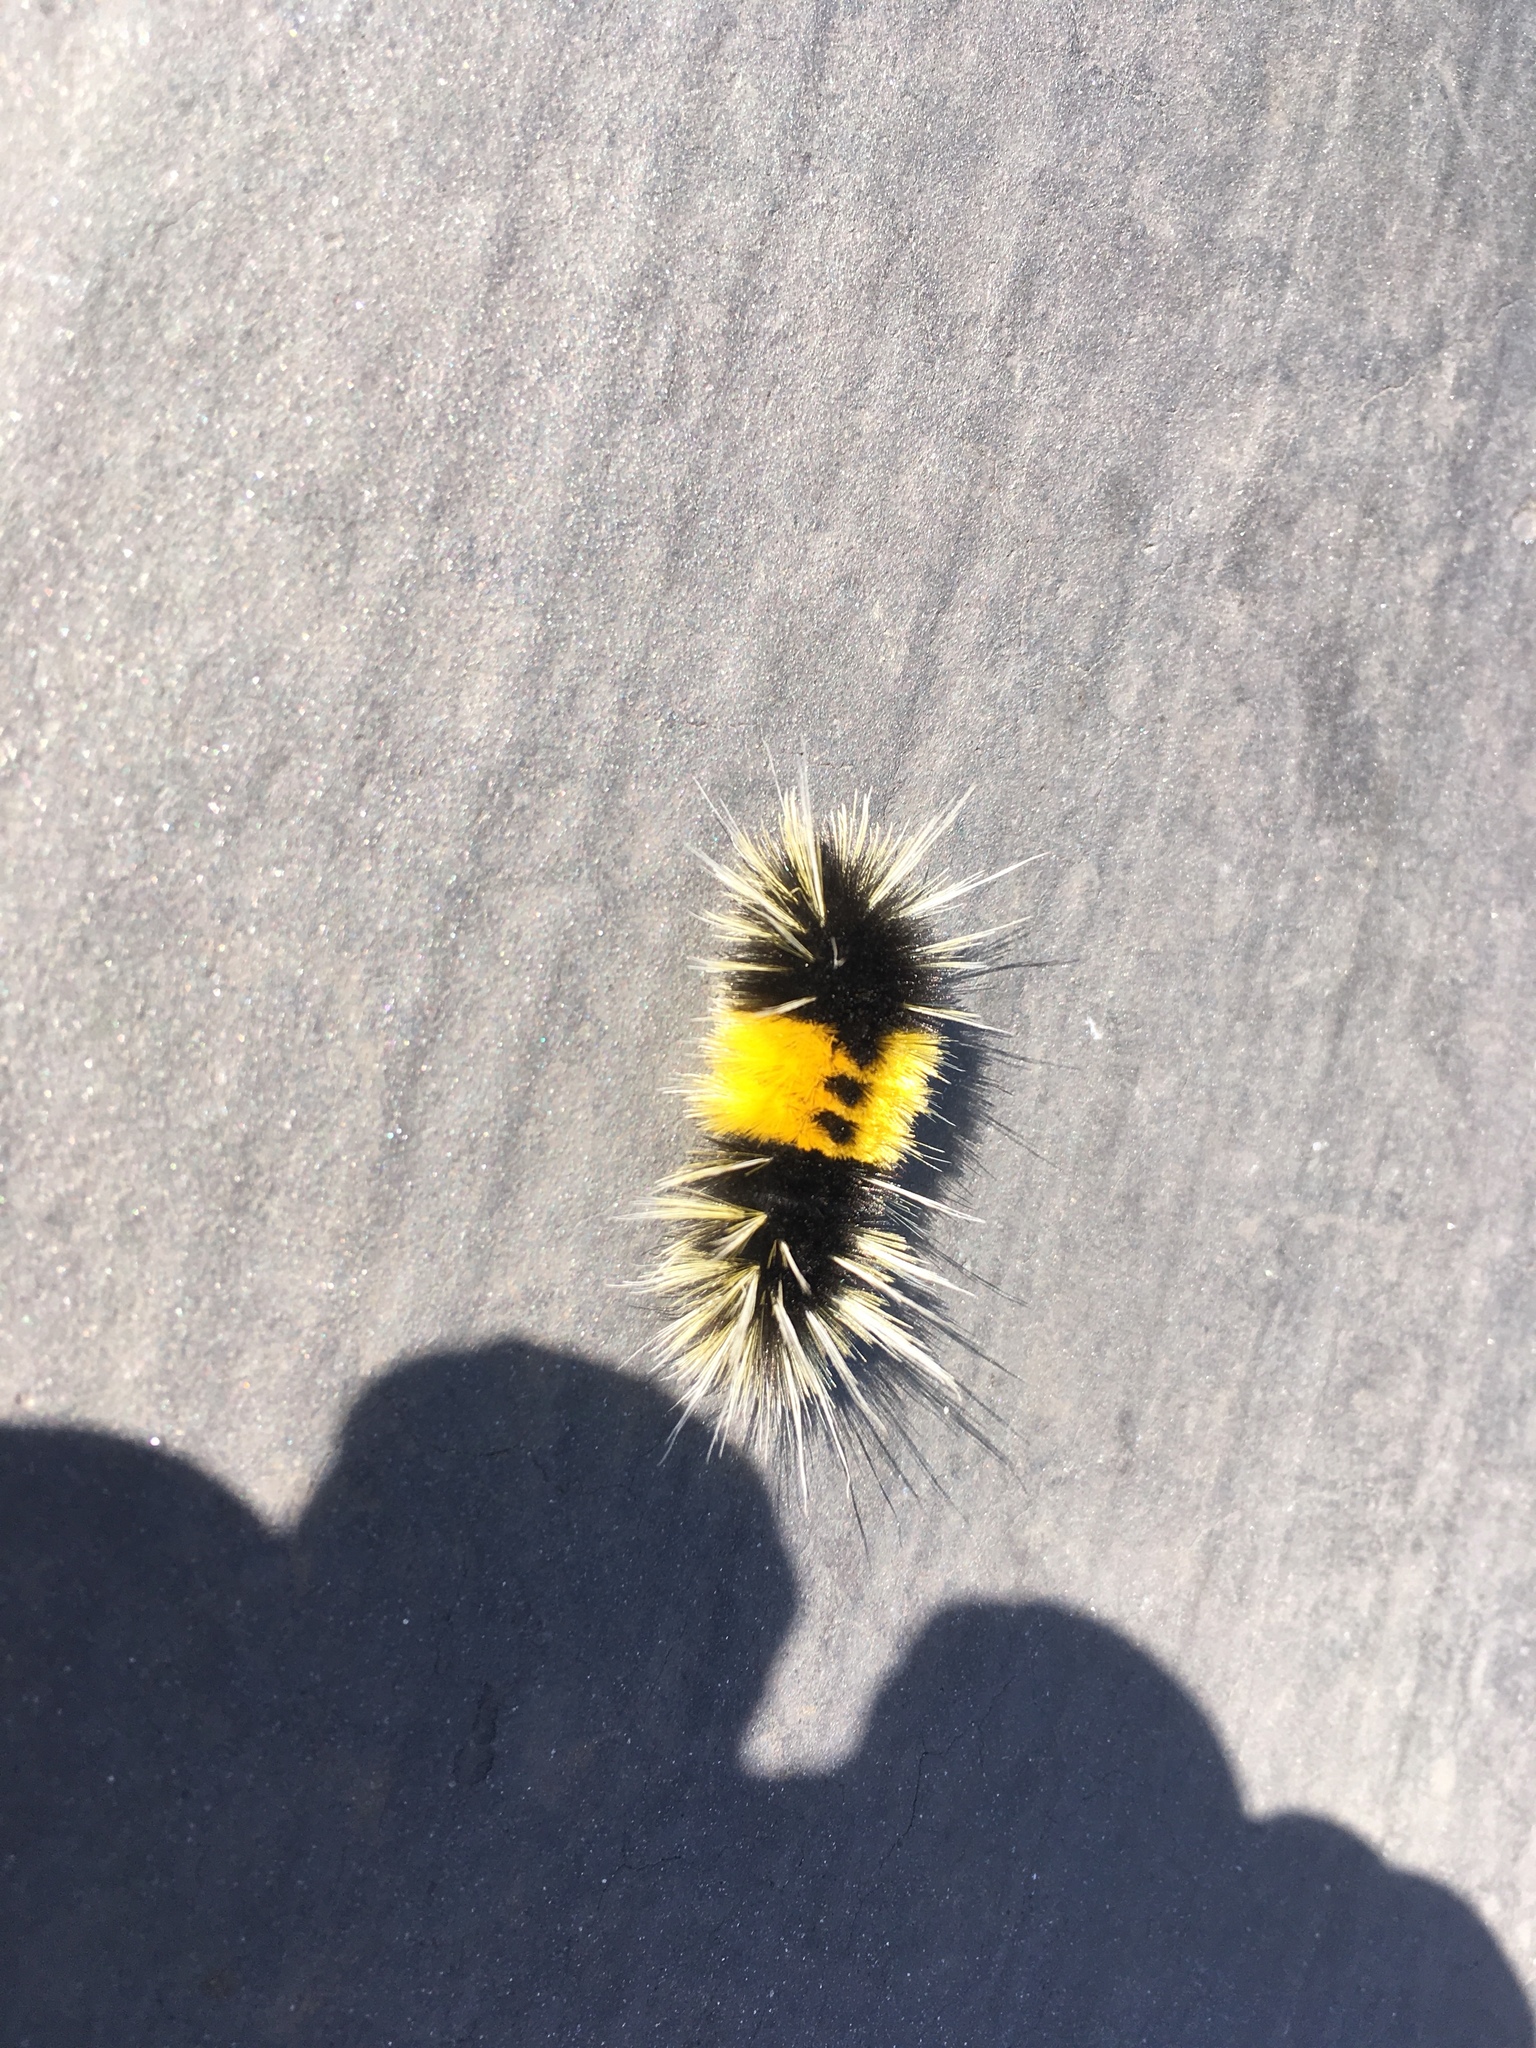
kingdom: Animalia
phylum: Arthropoda
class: Insecta
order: Lepidoptera
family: Erebidae
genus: Lophocampa
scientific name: Lophocampa maculata
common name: Spotted tussock moth
